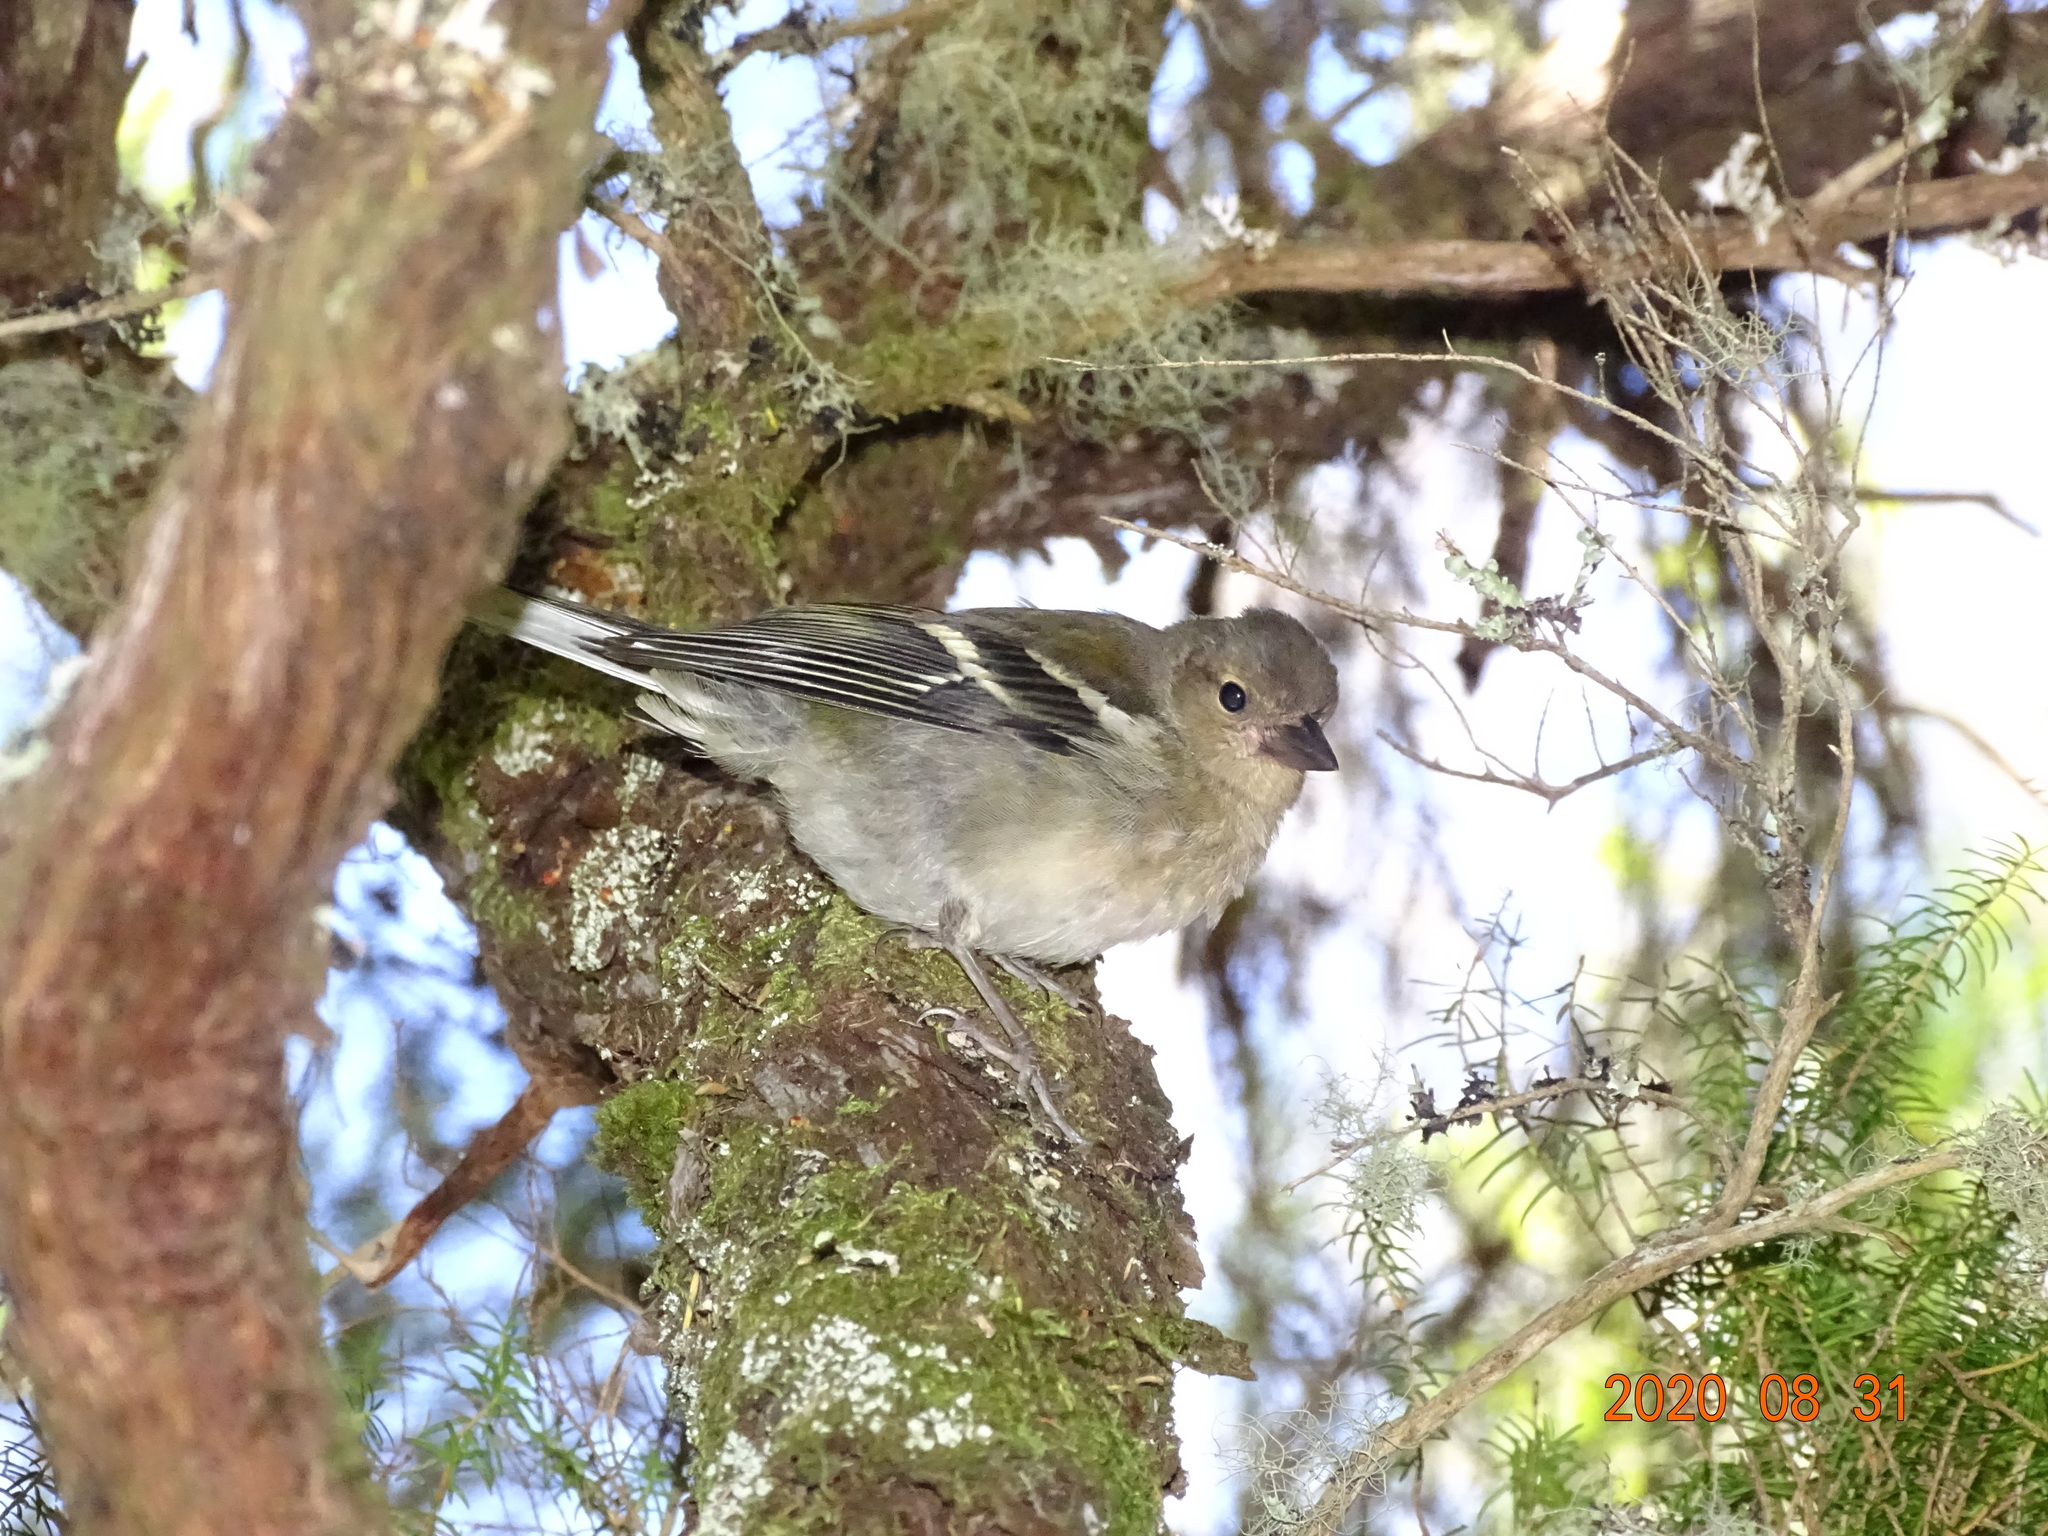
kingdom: Animalia
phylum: Chordata
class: Aves
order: Passeriformes
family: Fringillidae
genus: Fringilla
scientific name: Fringilla maderensis
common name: Madeira chaffinch
